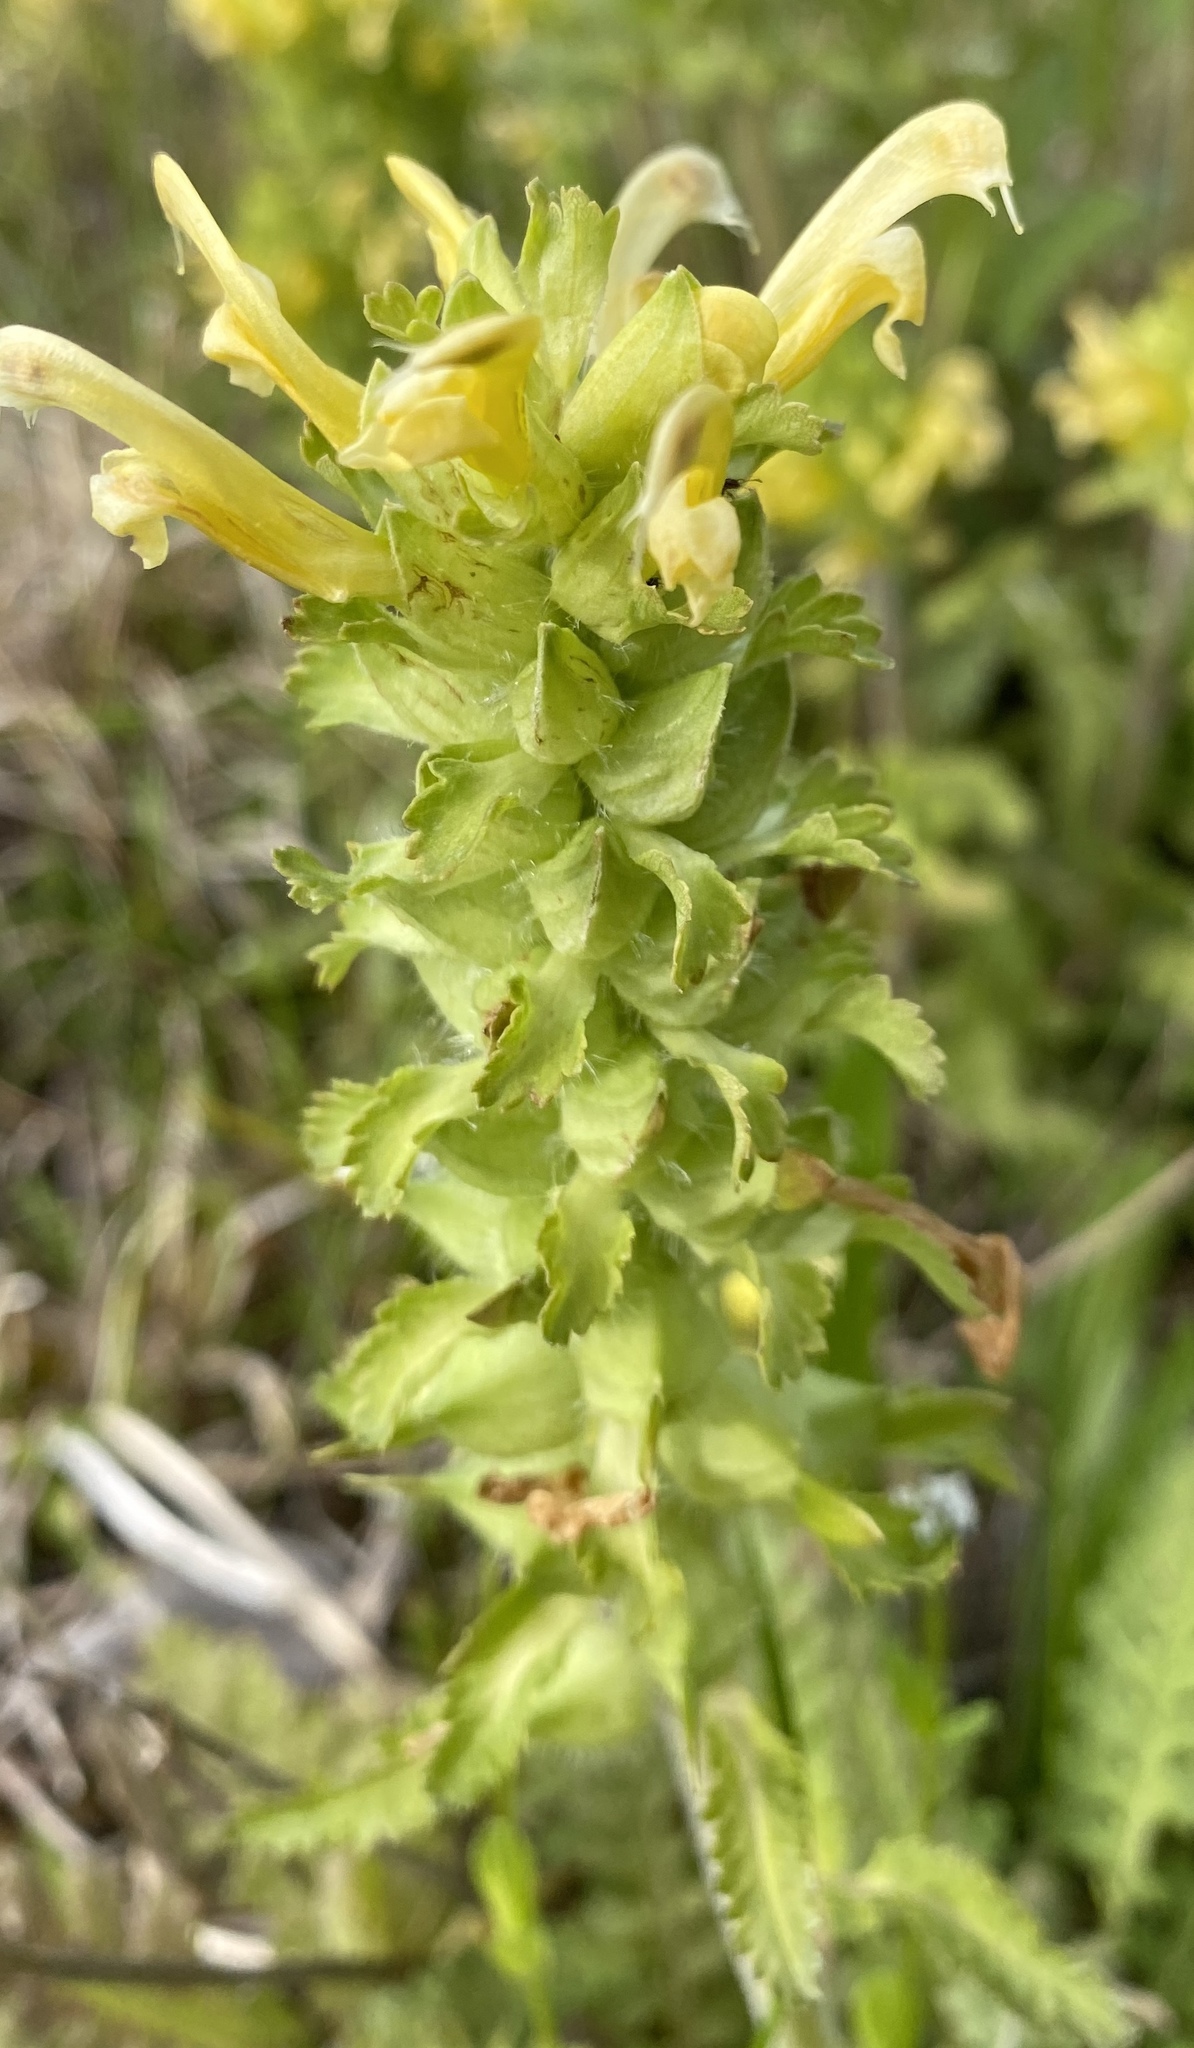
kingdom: Plantae
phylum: Tracheophyta
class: Magnoliopsida
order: Lamiales
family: Orobanchaceae
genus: Pedicularis
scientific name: Pedicularis canadensis
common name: Early lousewort
